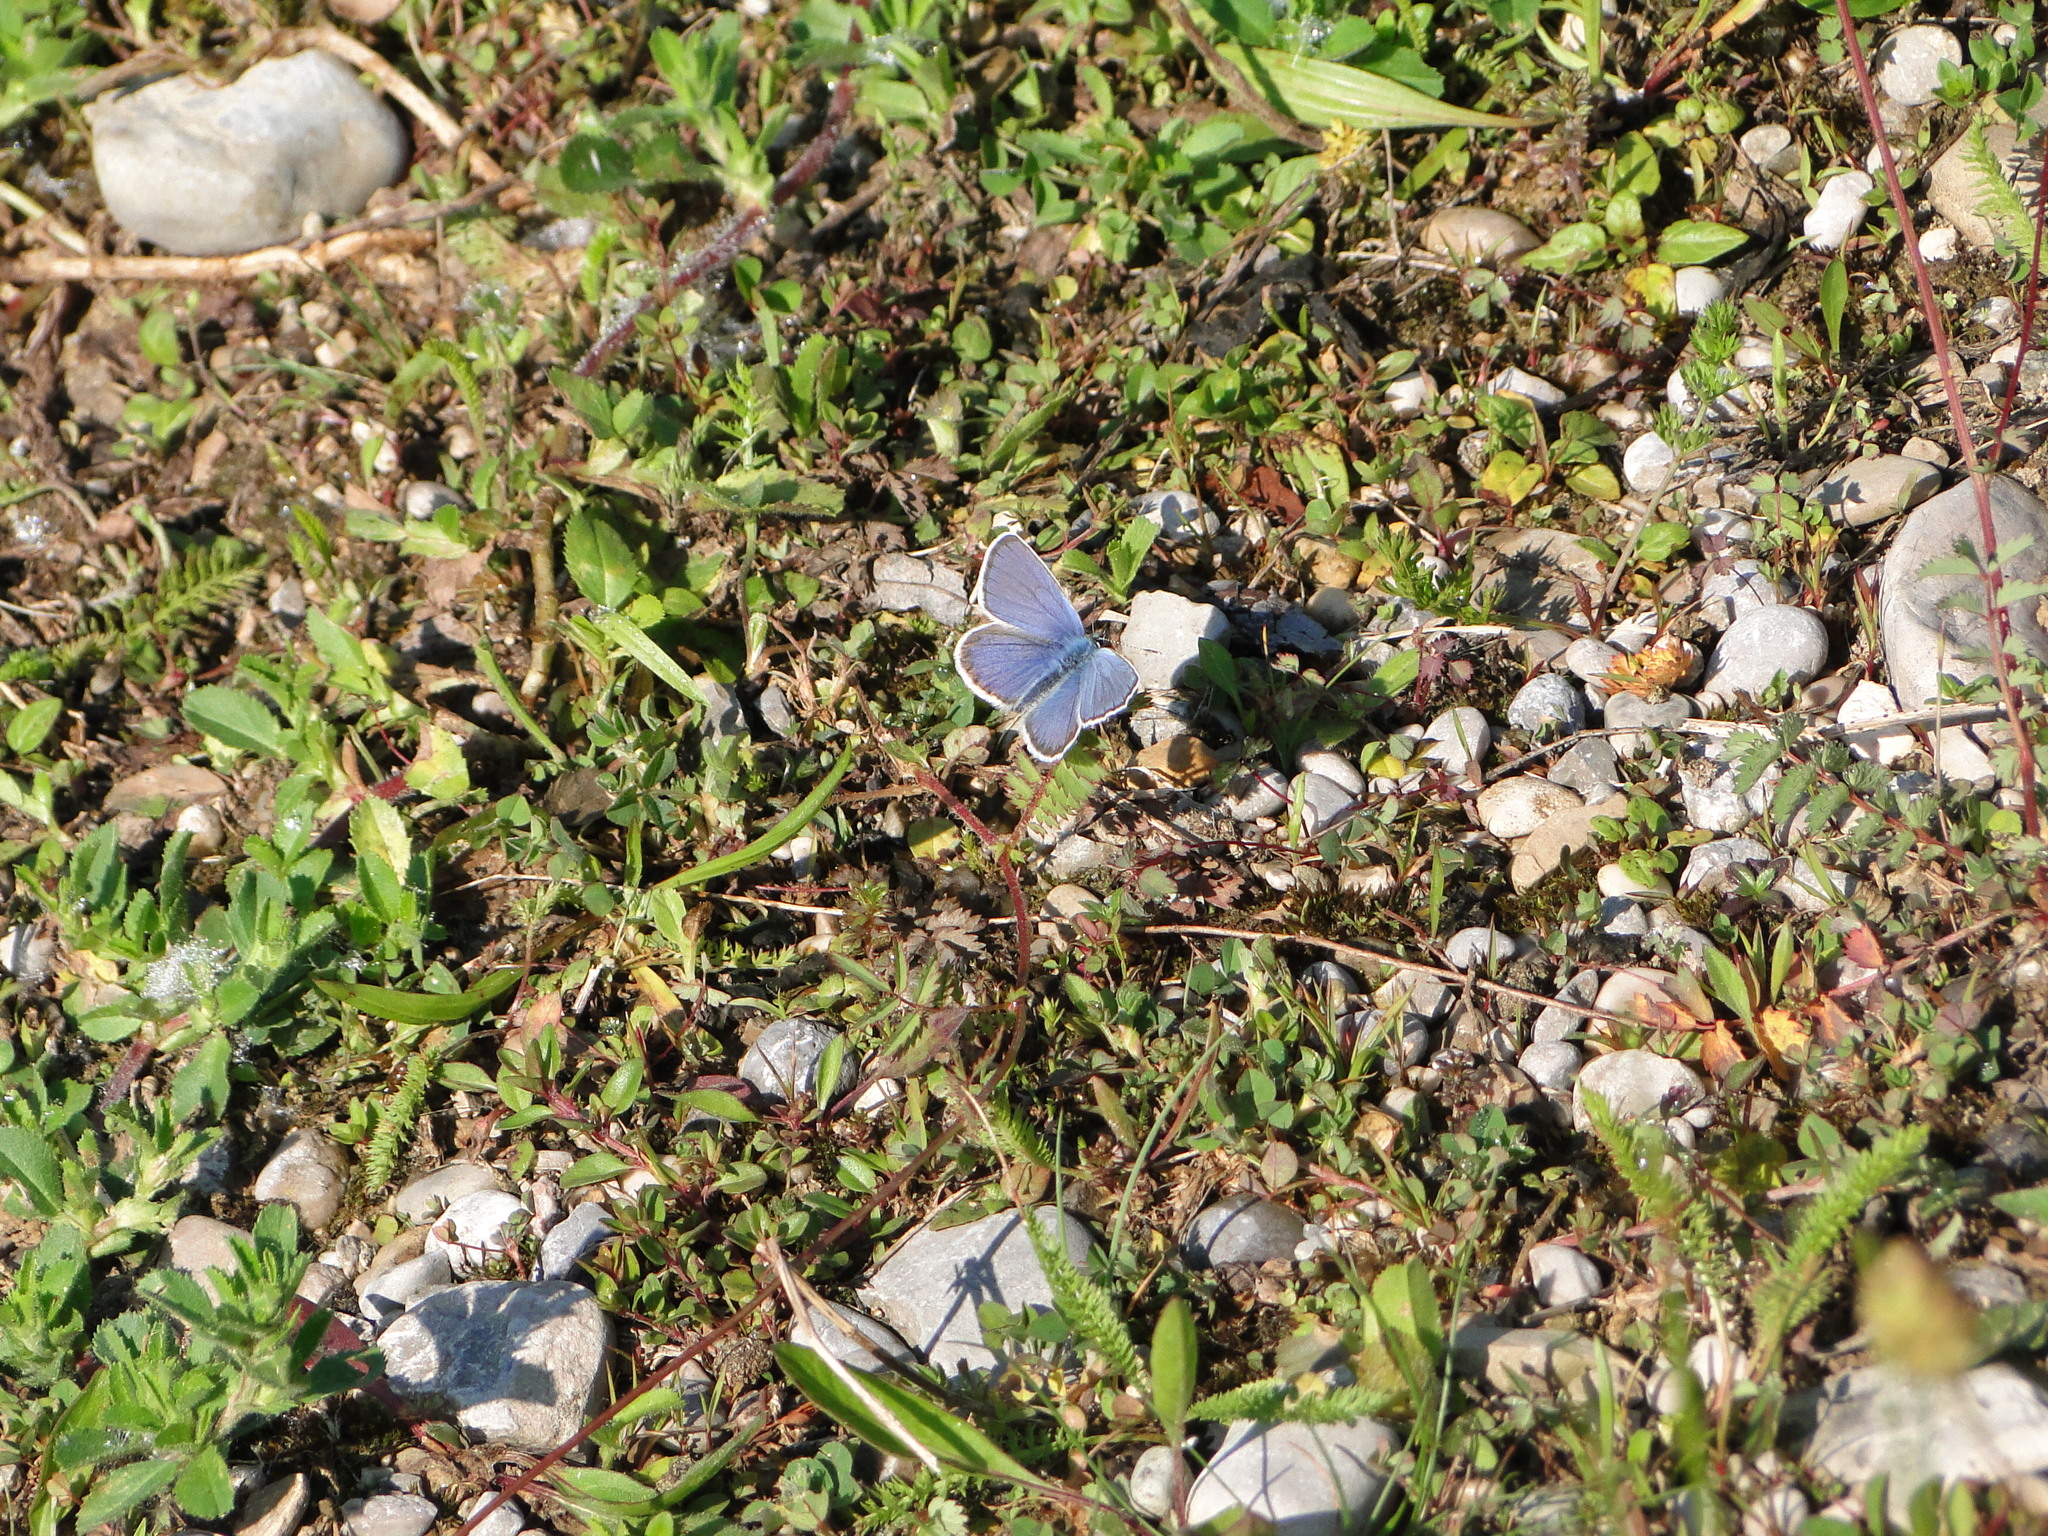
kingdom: Animalia
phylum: Arthropoda
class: Insecta
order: Lepidoptera
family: Lycaenidae
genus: Lycaeides
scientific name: Lycaeides idas
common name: Northern blue
